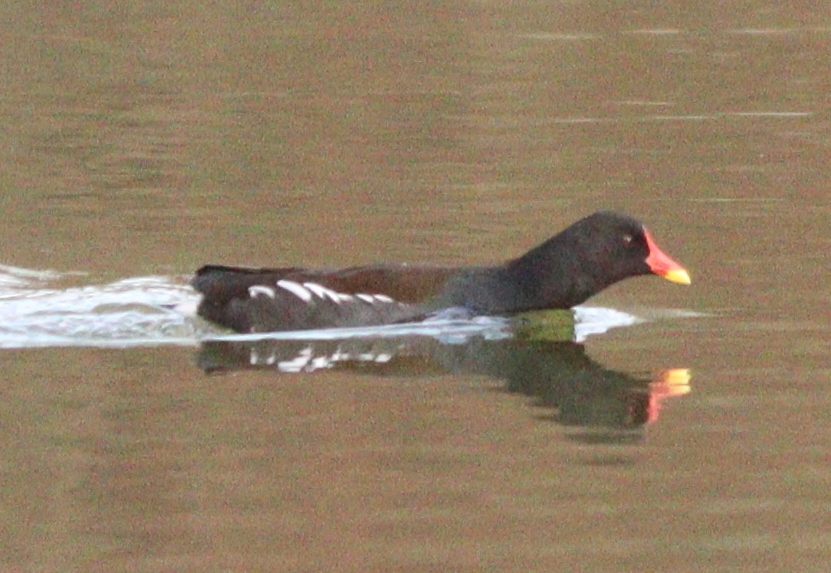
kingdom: Animalia
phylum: Chordata
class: Aves
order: Gruiformes
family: Rallidae
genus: Gallinula
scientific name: Gallinula chloropus
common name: Common moorhen
